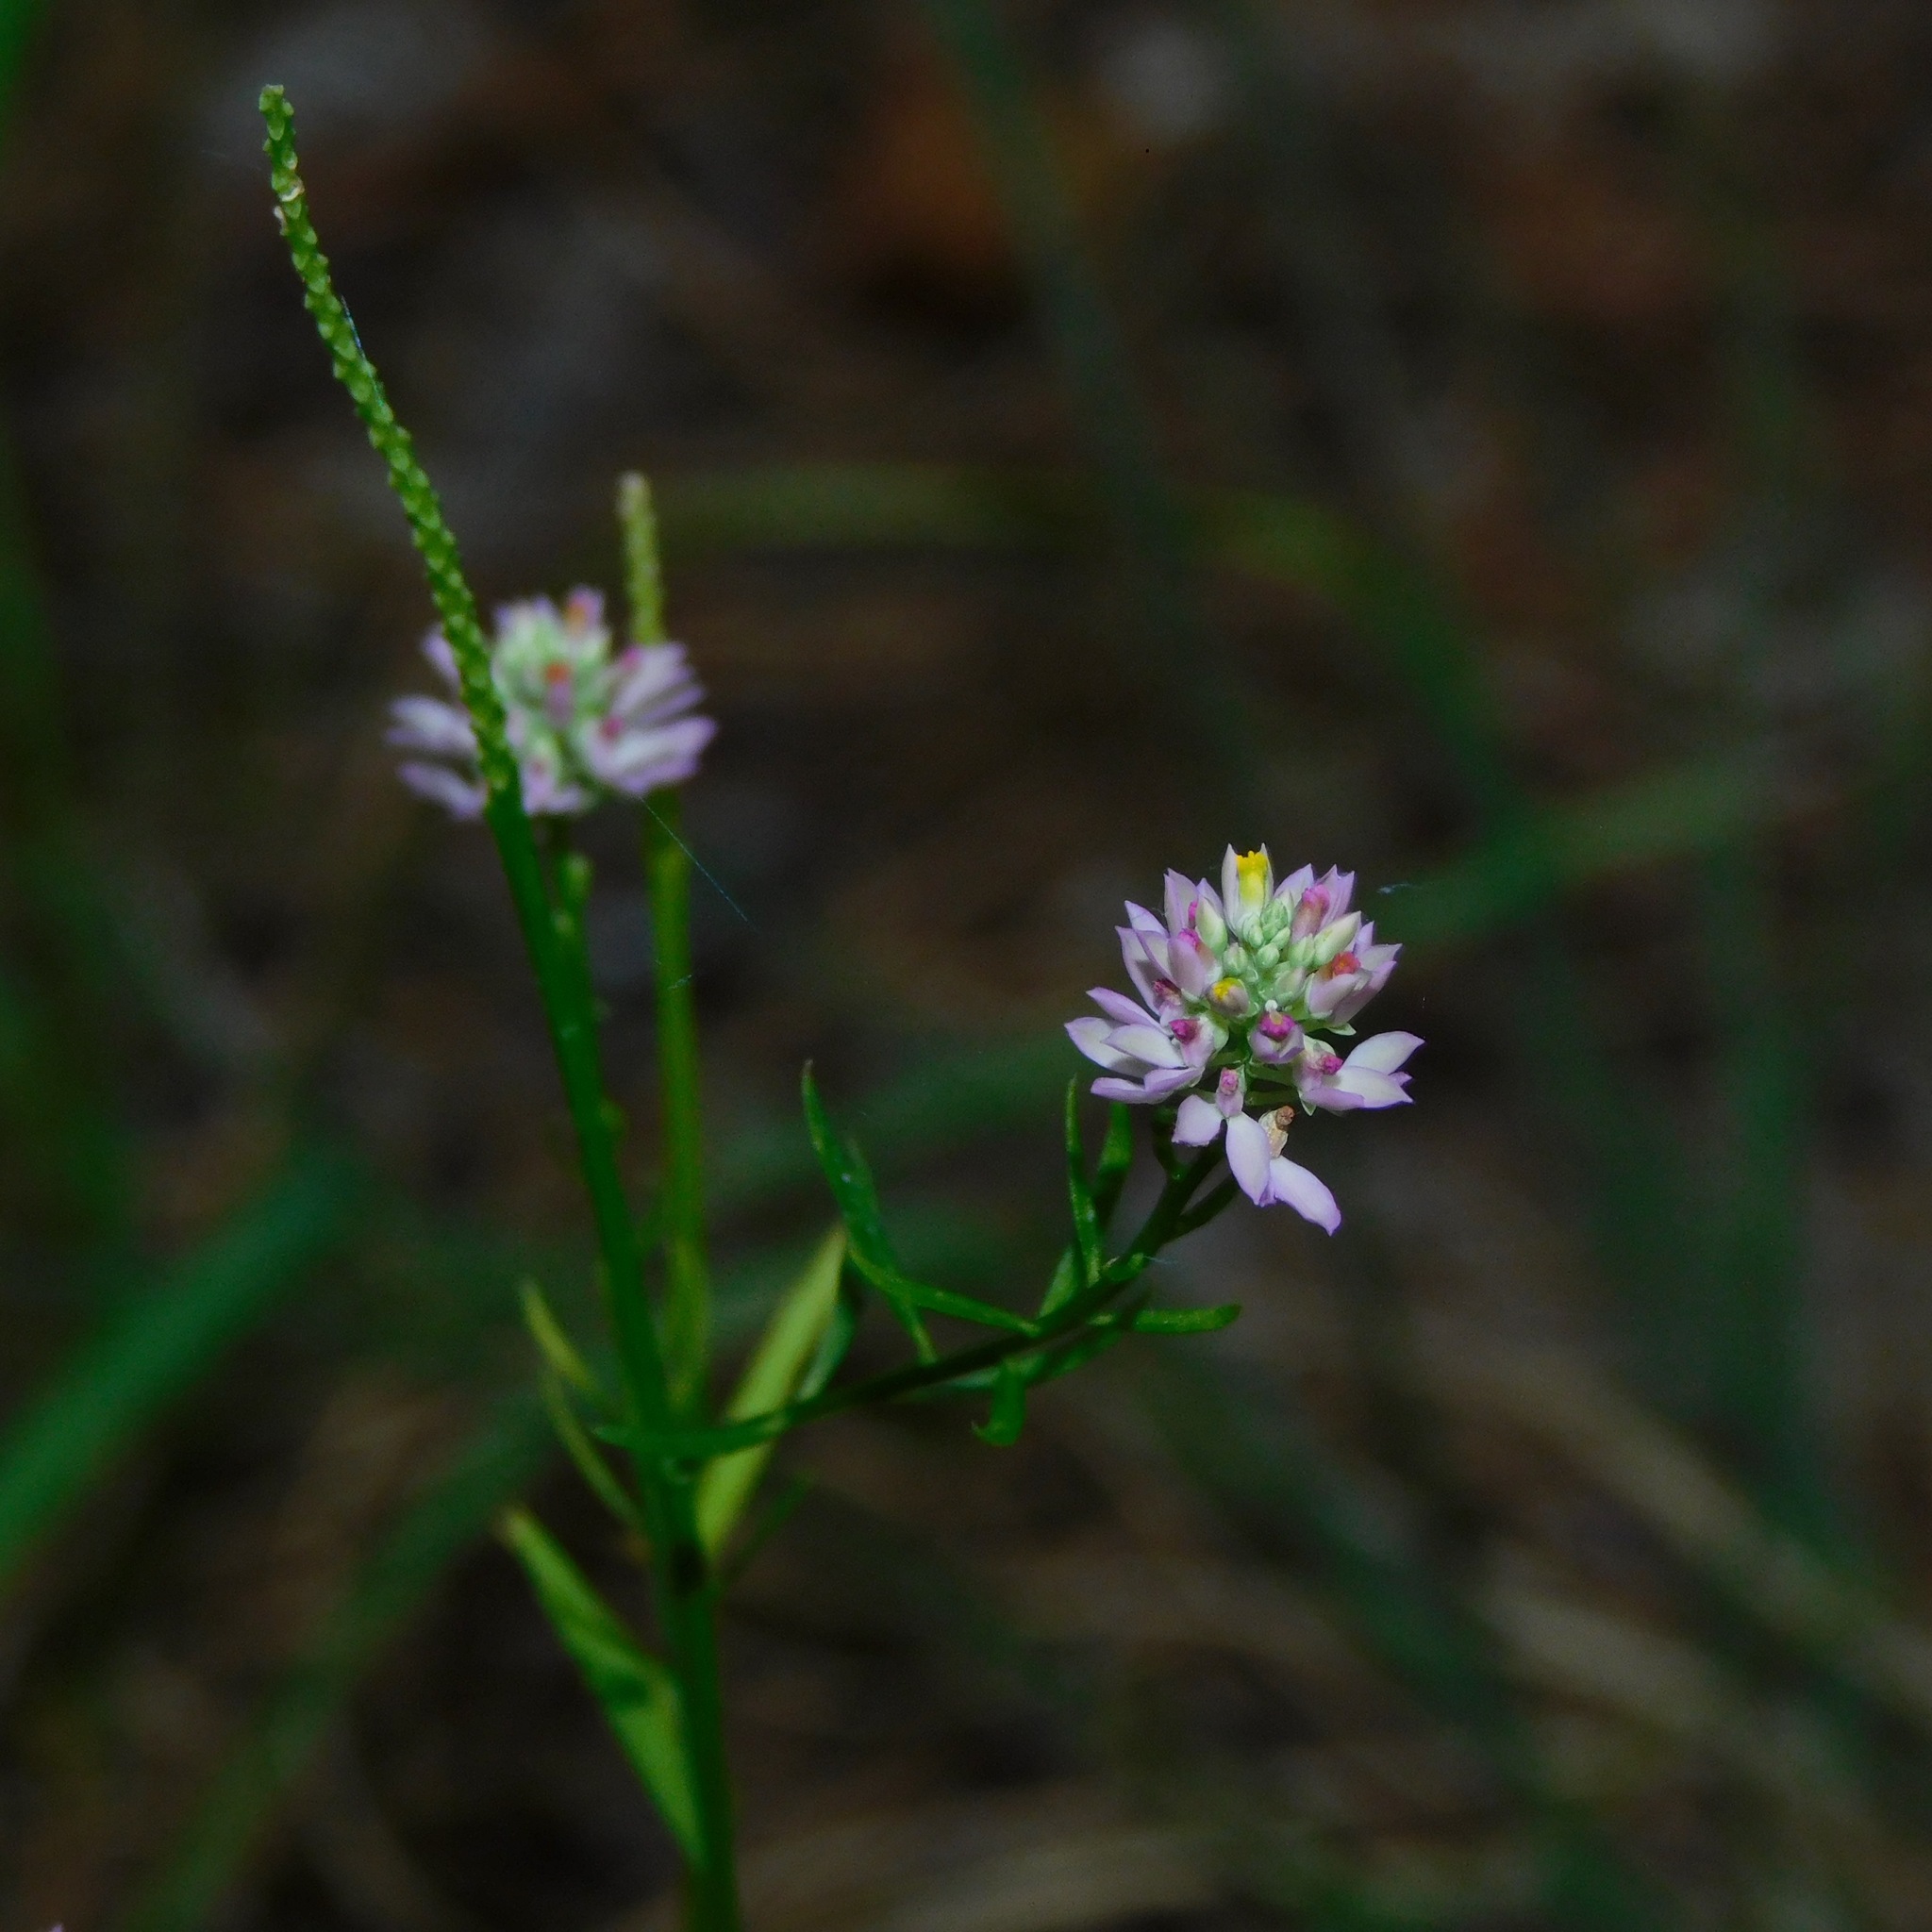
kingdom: Plantae
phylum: Tracheophyta
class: Magnoliopsida
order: Fabales
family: Polygalaceae
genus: Polygala
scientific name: Polygala curtissii
